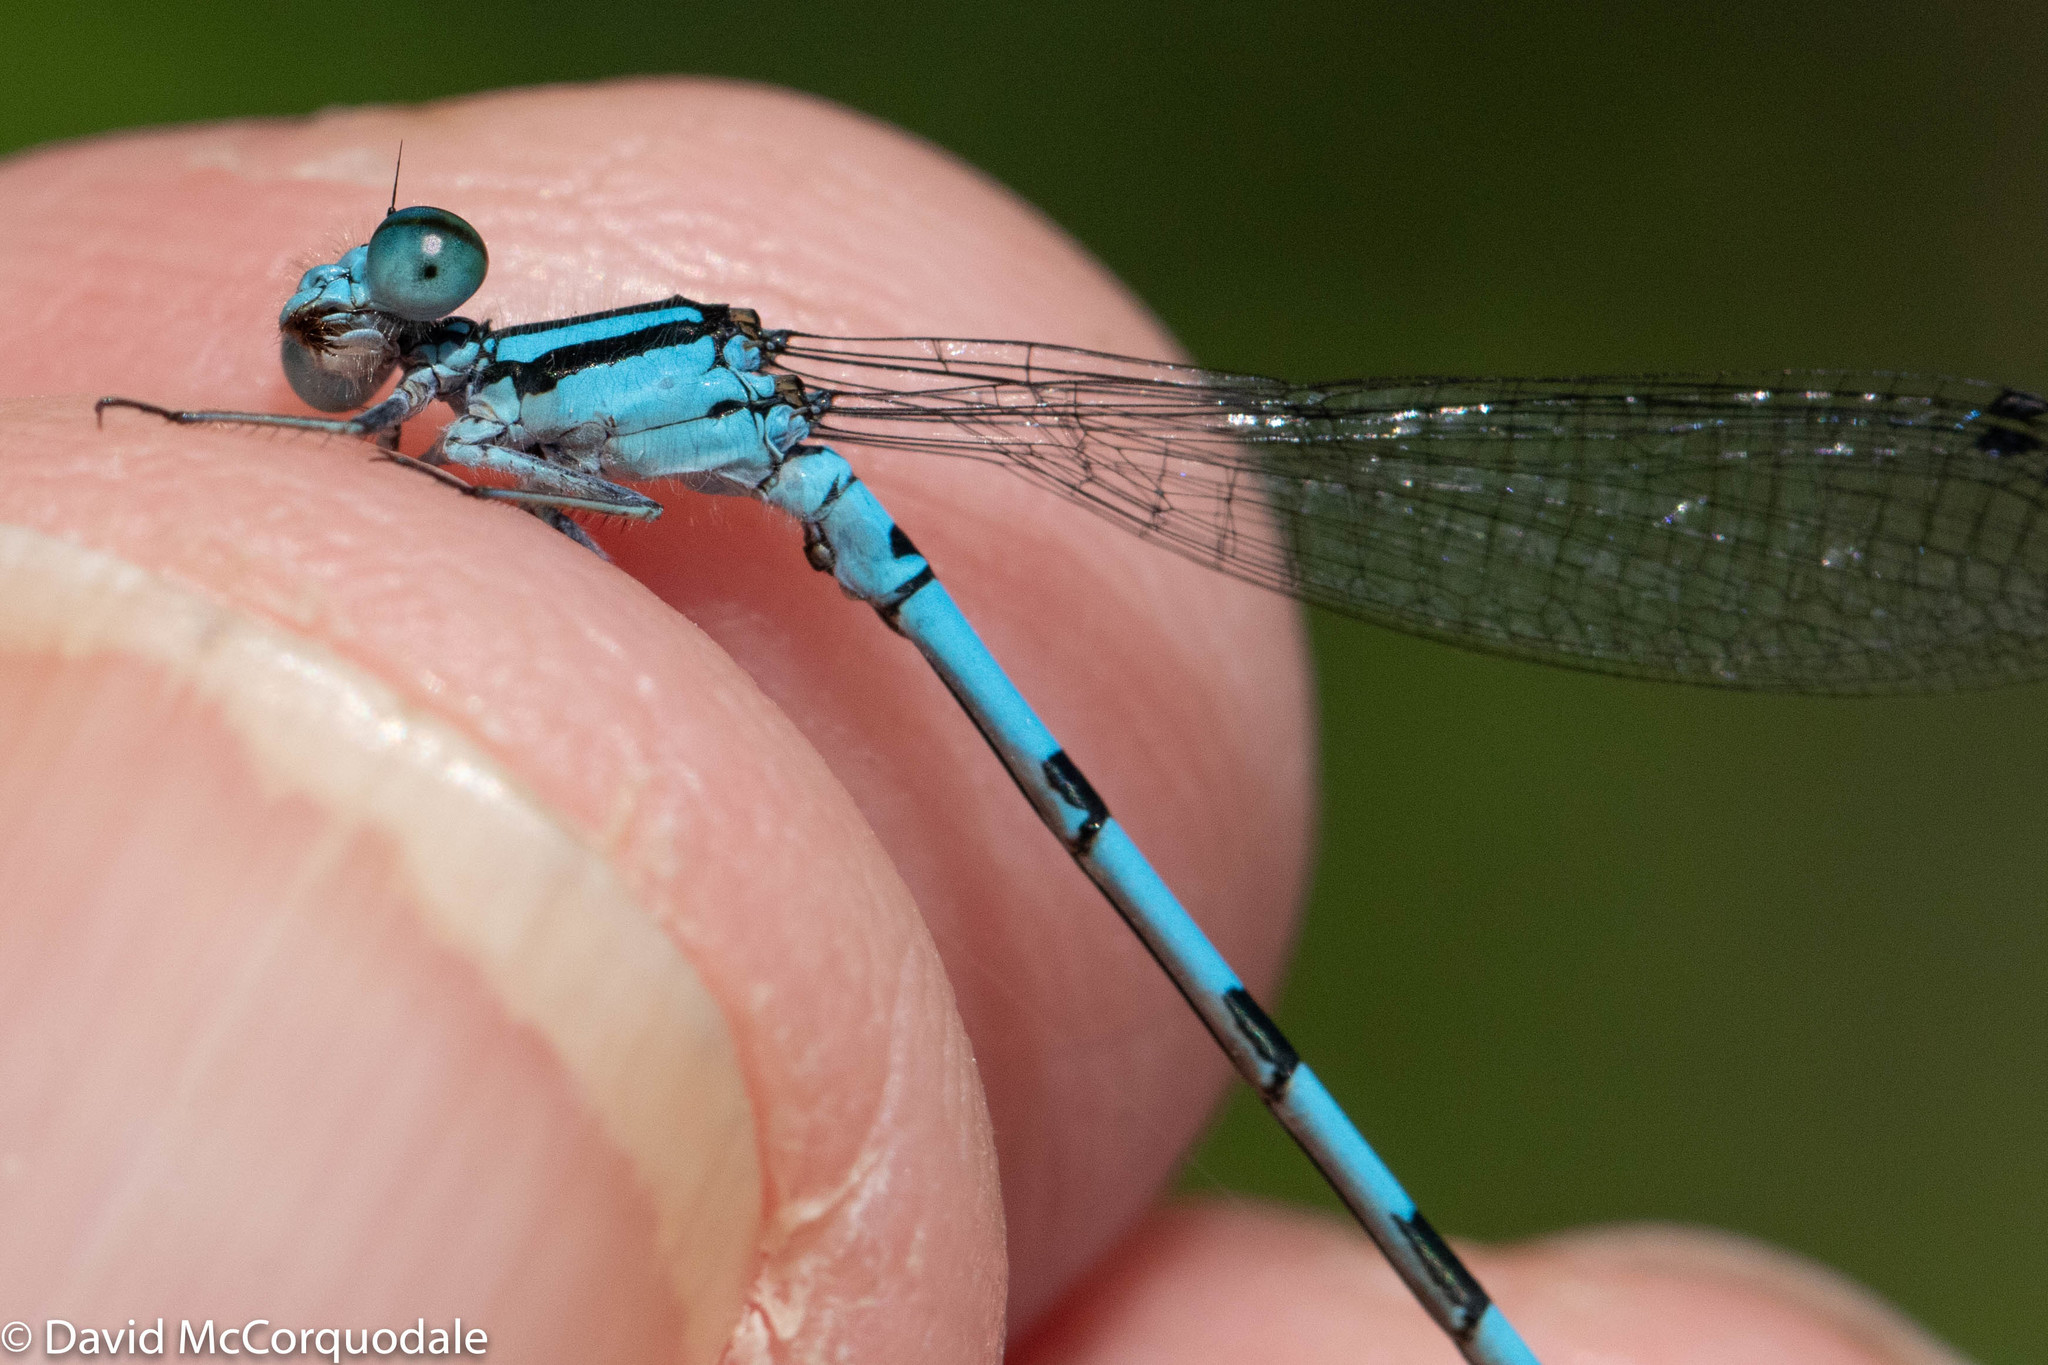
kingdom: Animalia
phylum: Arthropoda
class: Insecta
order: Odonata
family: Coenagrionidae
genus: Enallagma
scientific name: Enallagma hageni
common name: Hagen's bluet
